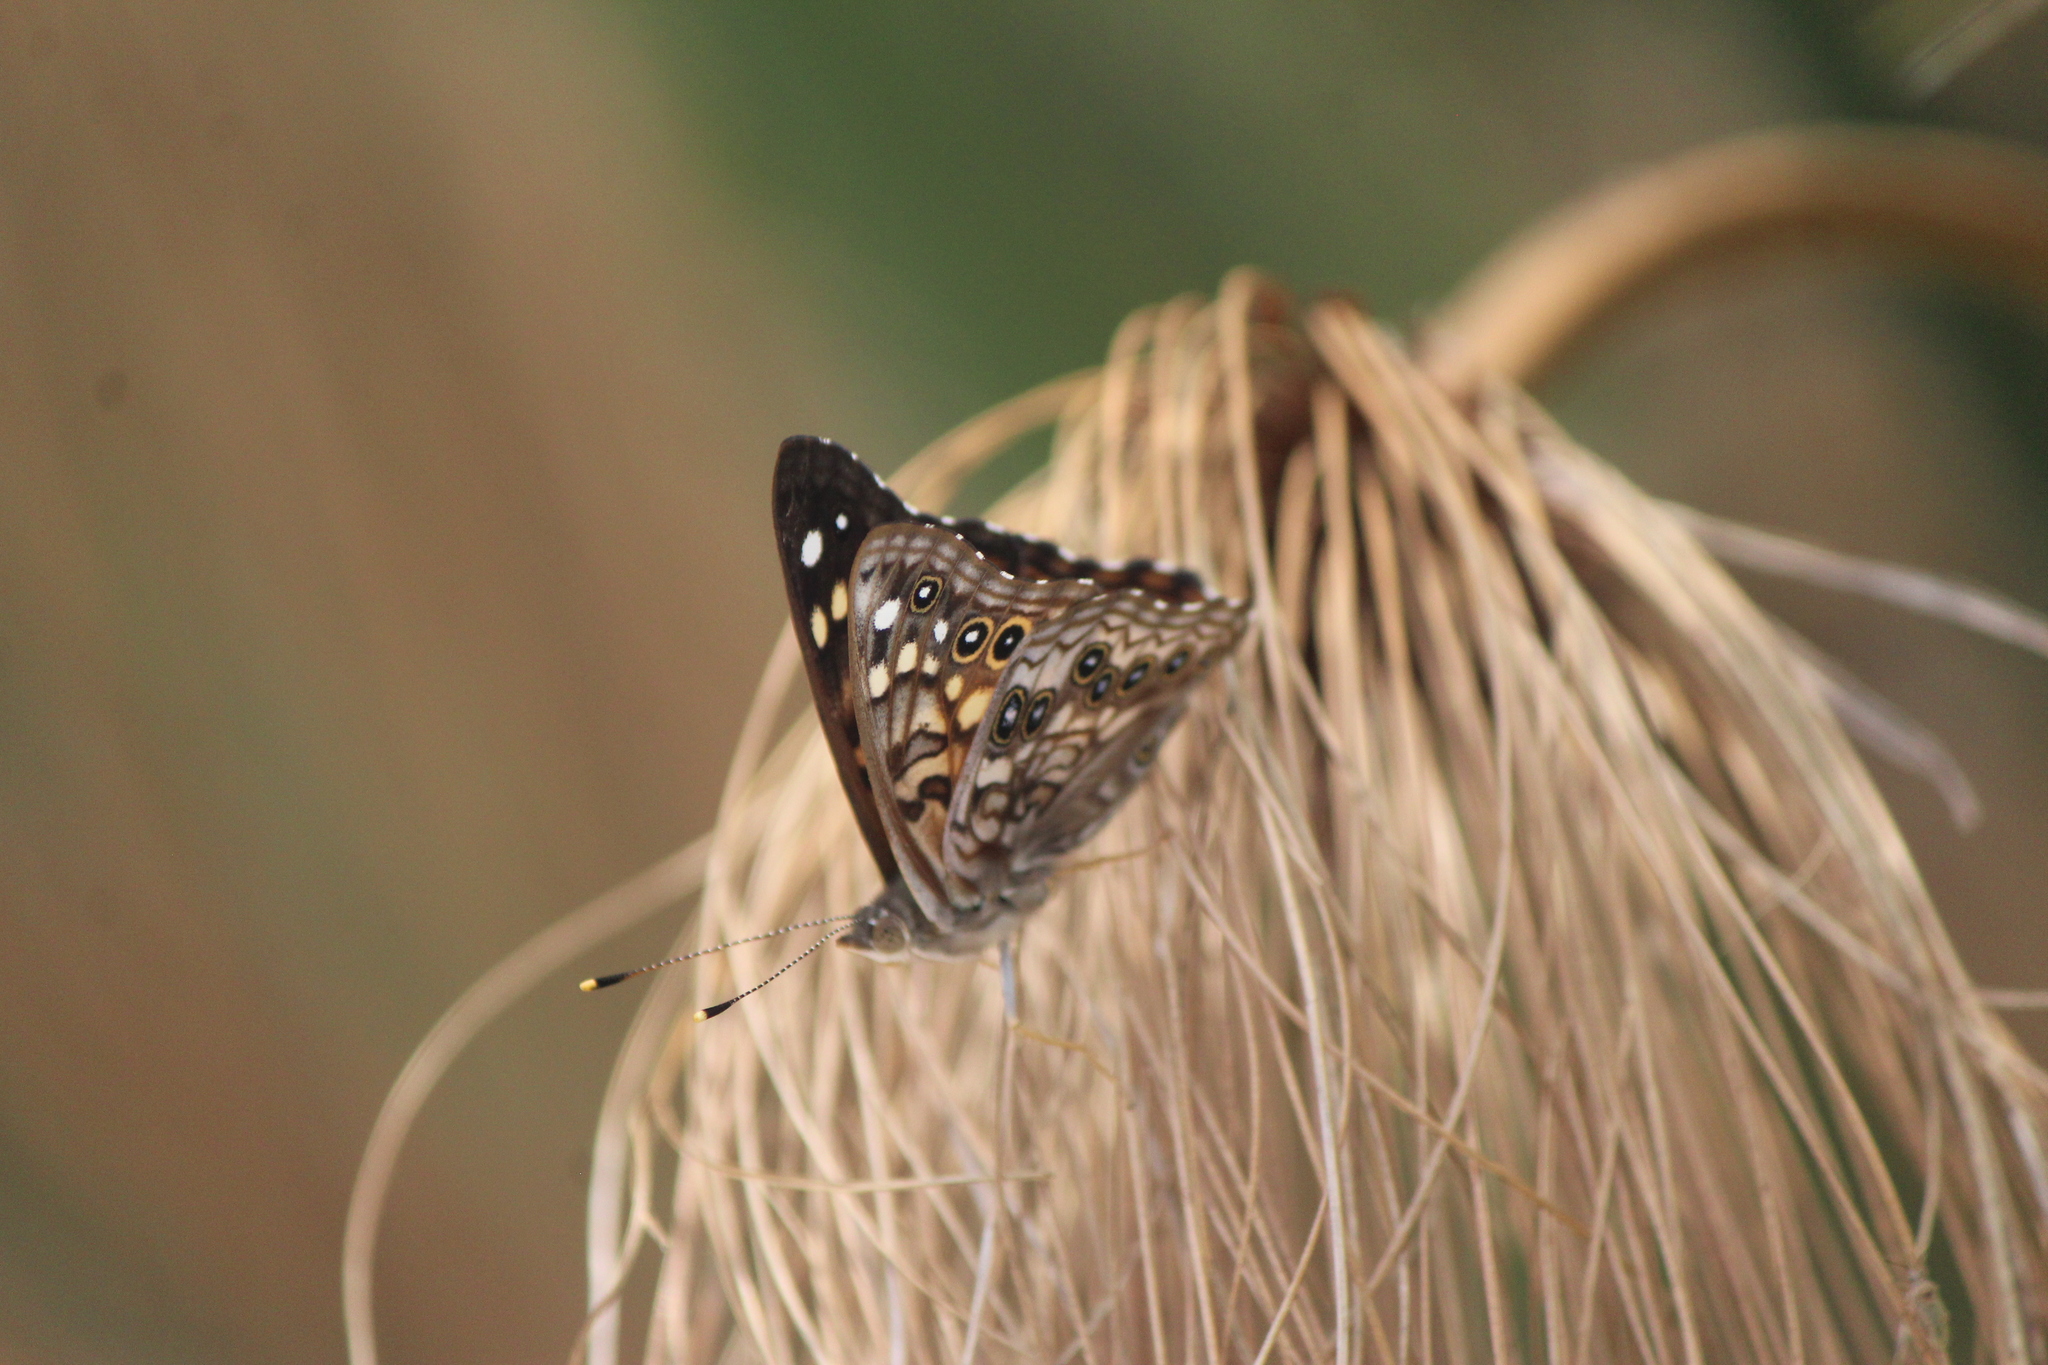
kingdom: Animalia
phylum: Arthropoda
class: Insecta
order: Lepidoptera
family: Nymphalidae
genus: Asterocampa
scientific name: Asterocampa leilia
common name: Empress leilia
